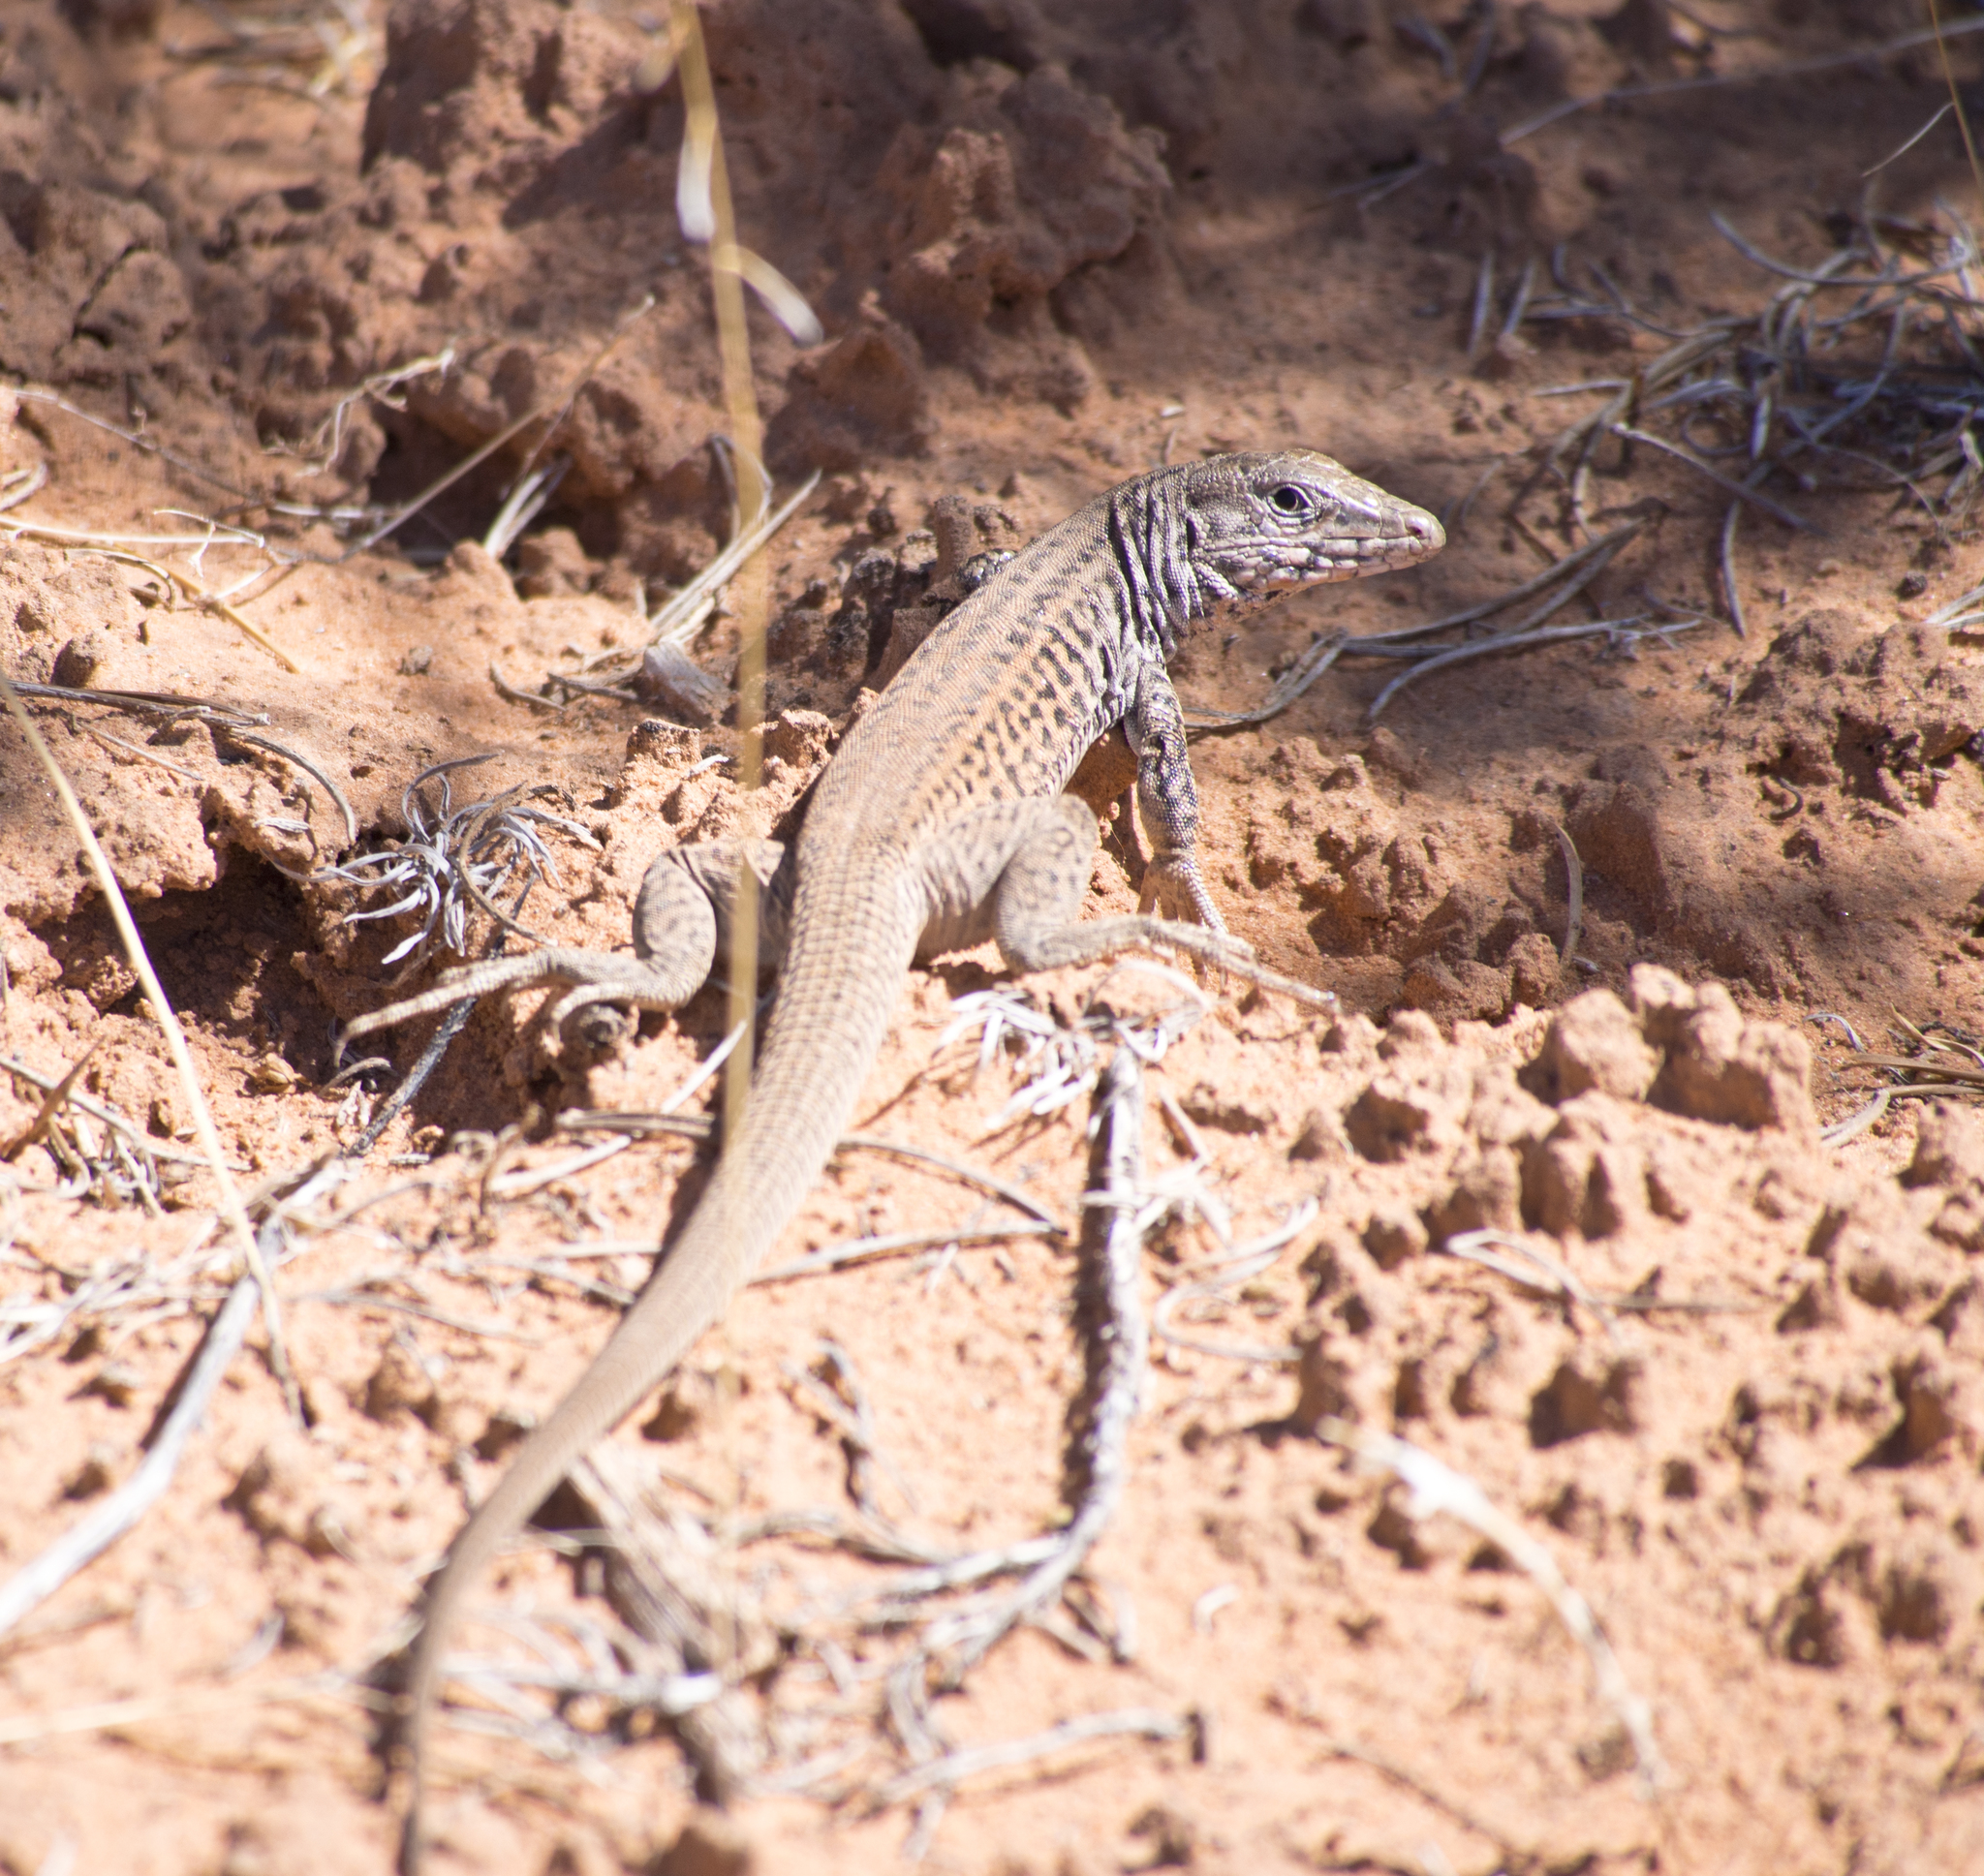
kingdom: Animalia
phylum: Chordata
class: Squamata
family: Teiidae
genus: Aspidoscelis
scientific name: Aspidoscelis tigris
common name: Tiger whiptail
